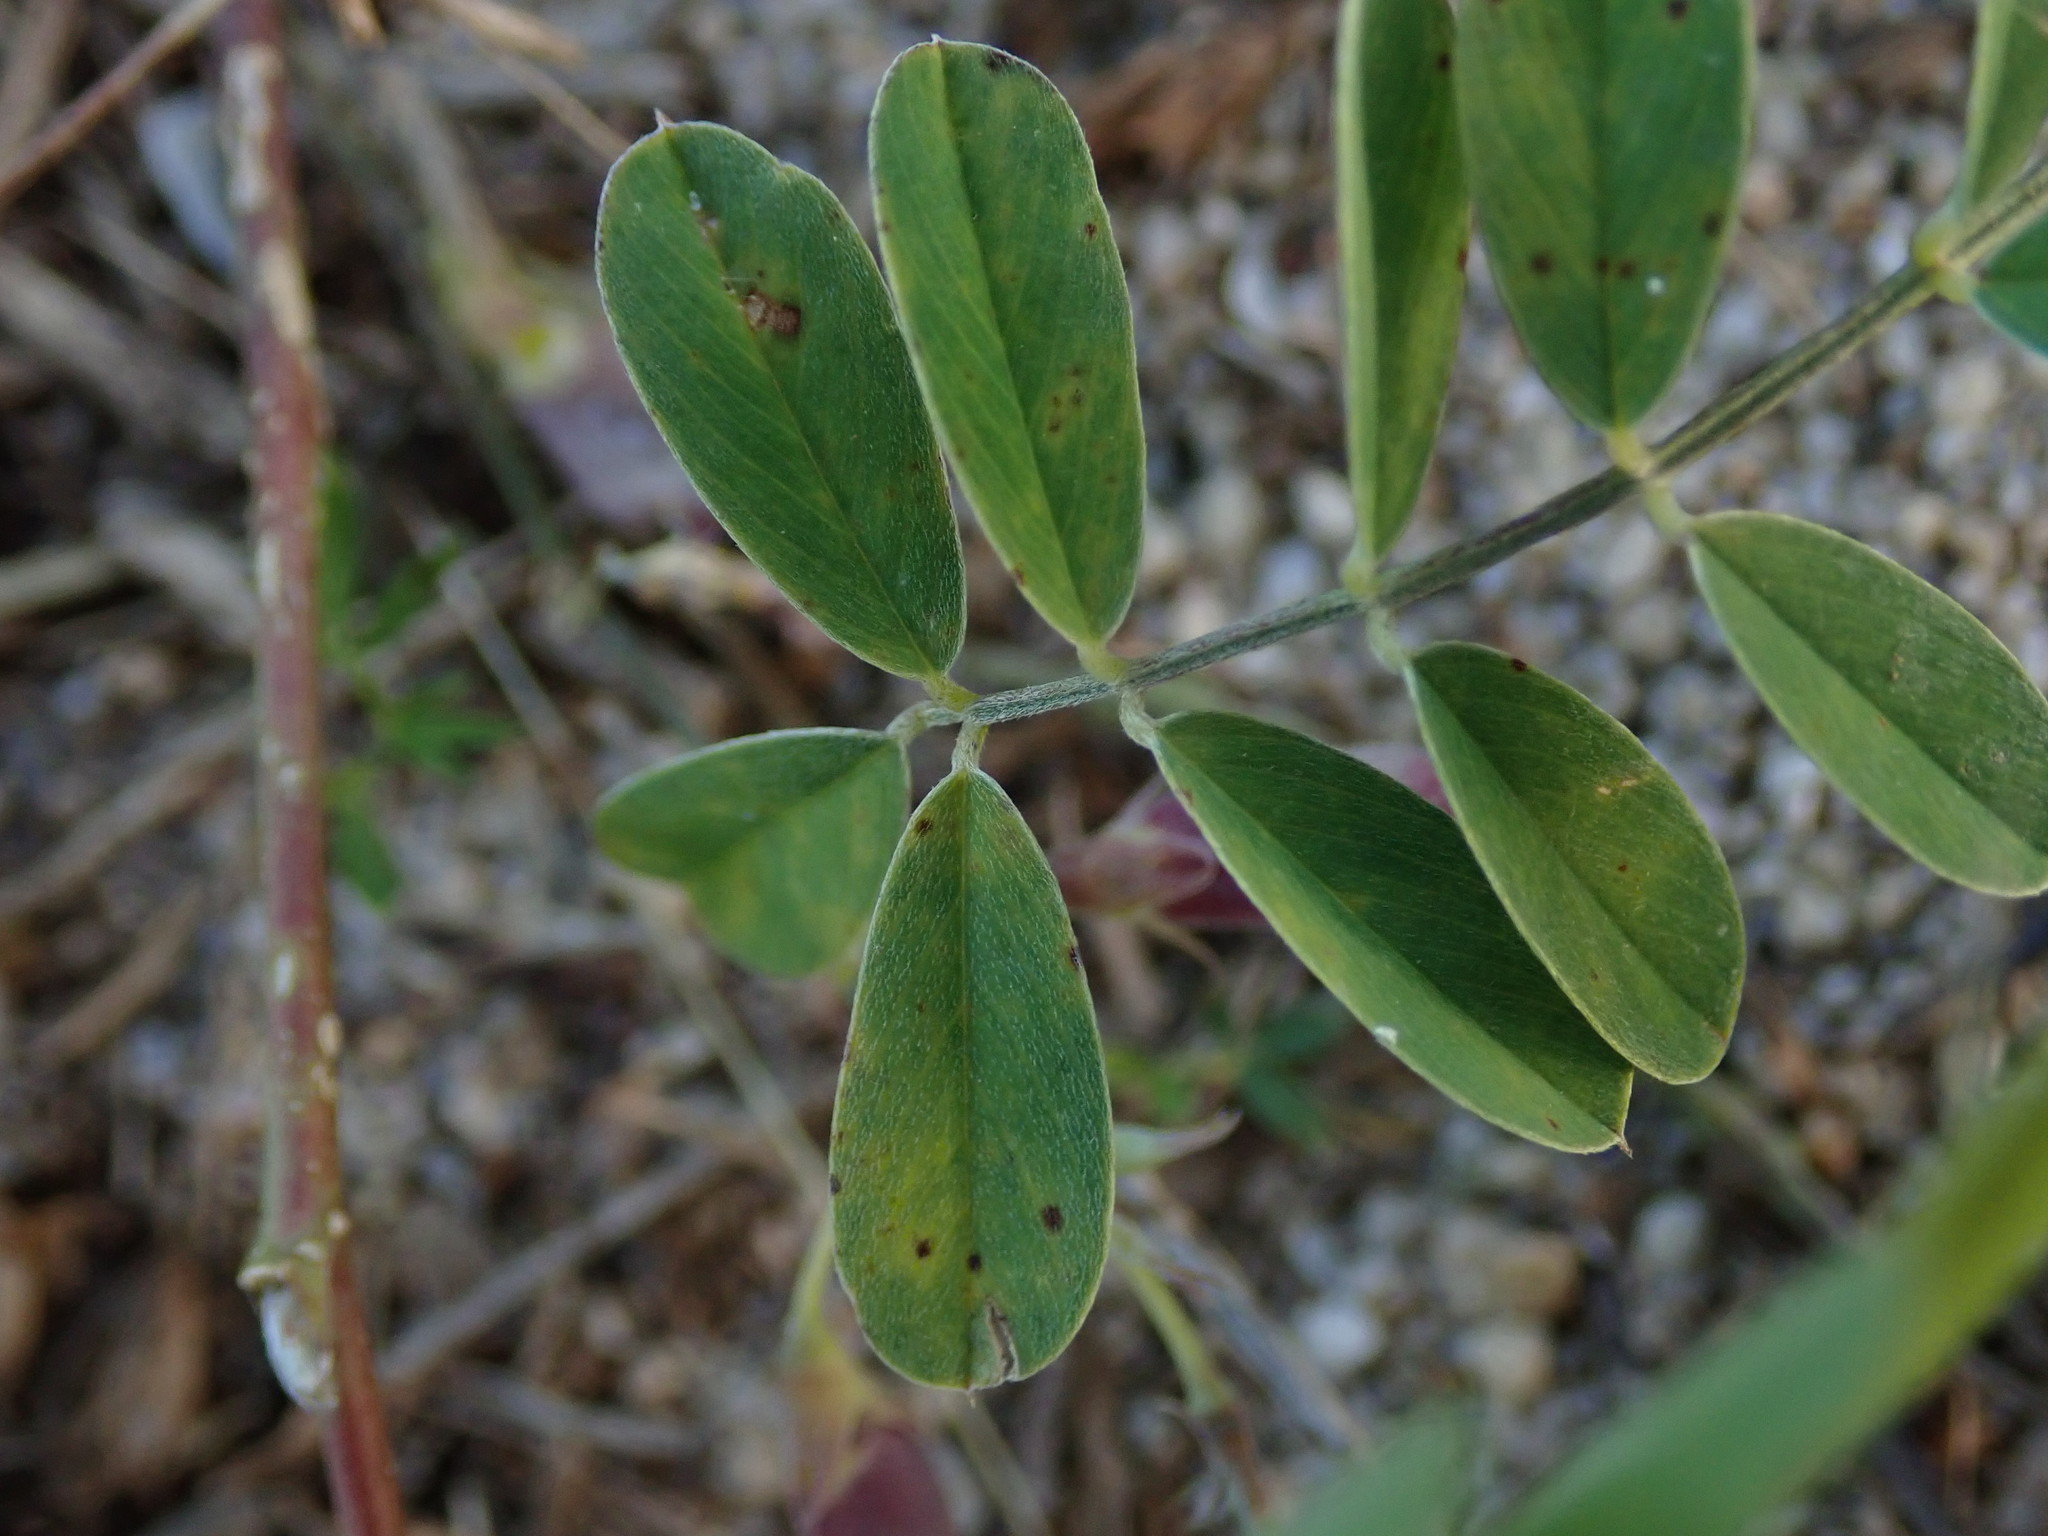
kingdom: Plantae
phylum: Tracheophyta
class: Magnoliopsida
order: Fabales
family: Fabaceae
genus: Tephrosia
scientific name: Tephrosia cinerea
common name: Ashen hoarypea
